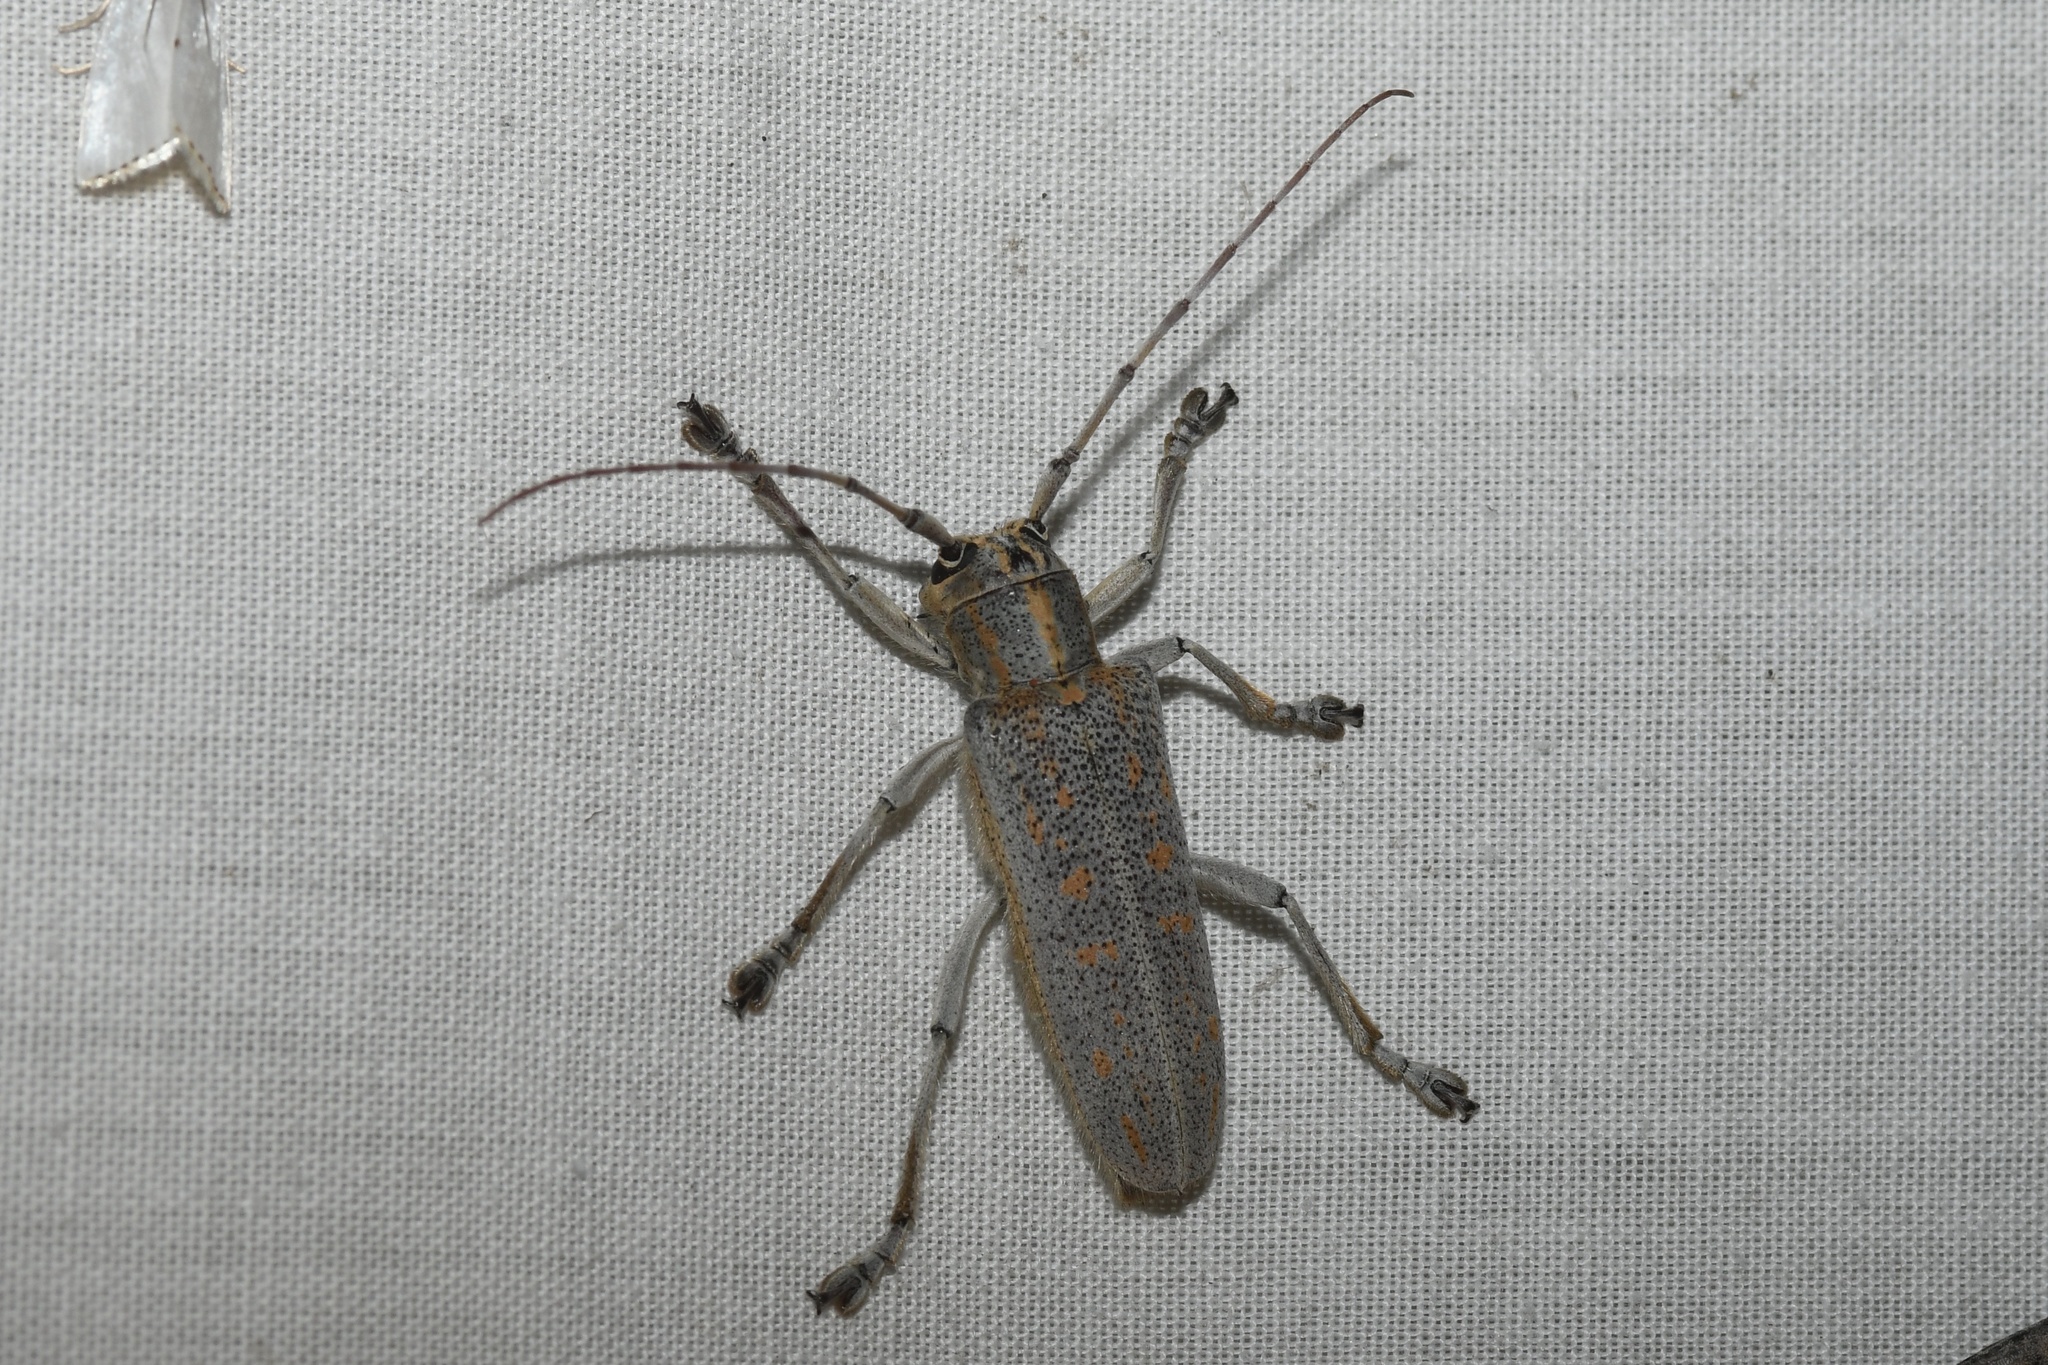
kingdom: Animalia
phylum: Arthropoda
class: Insecta
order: Coleoptera
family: Cerambycidae
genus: Saperda
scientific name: Saperda calcarata
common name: Poplar borer
